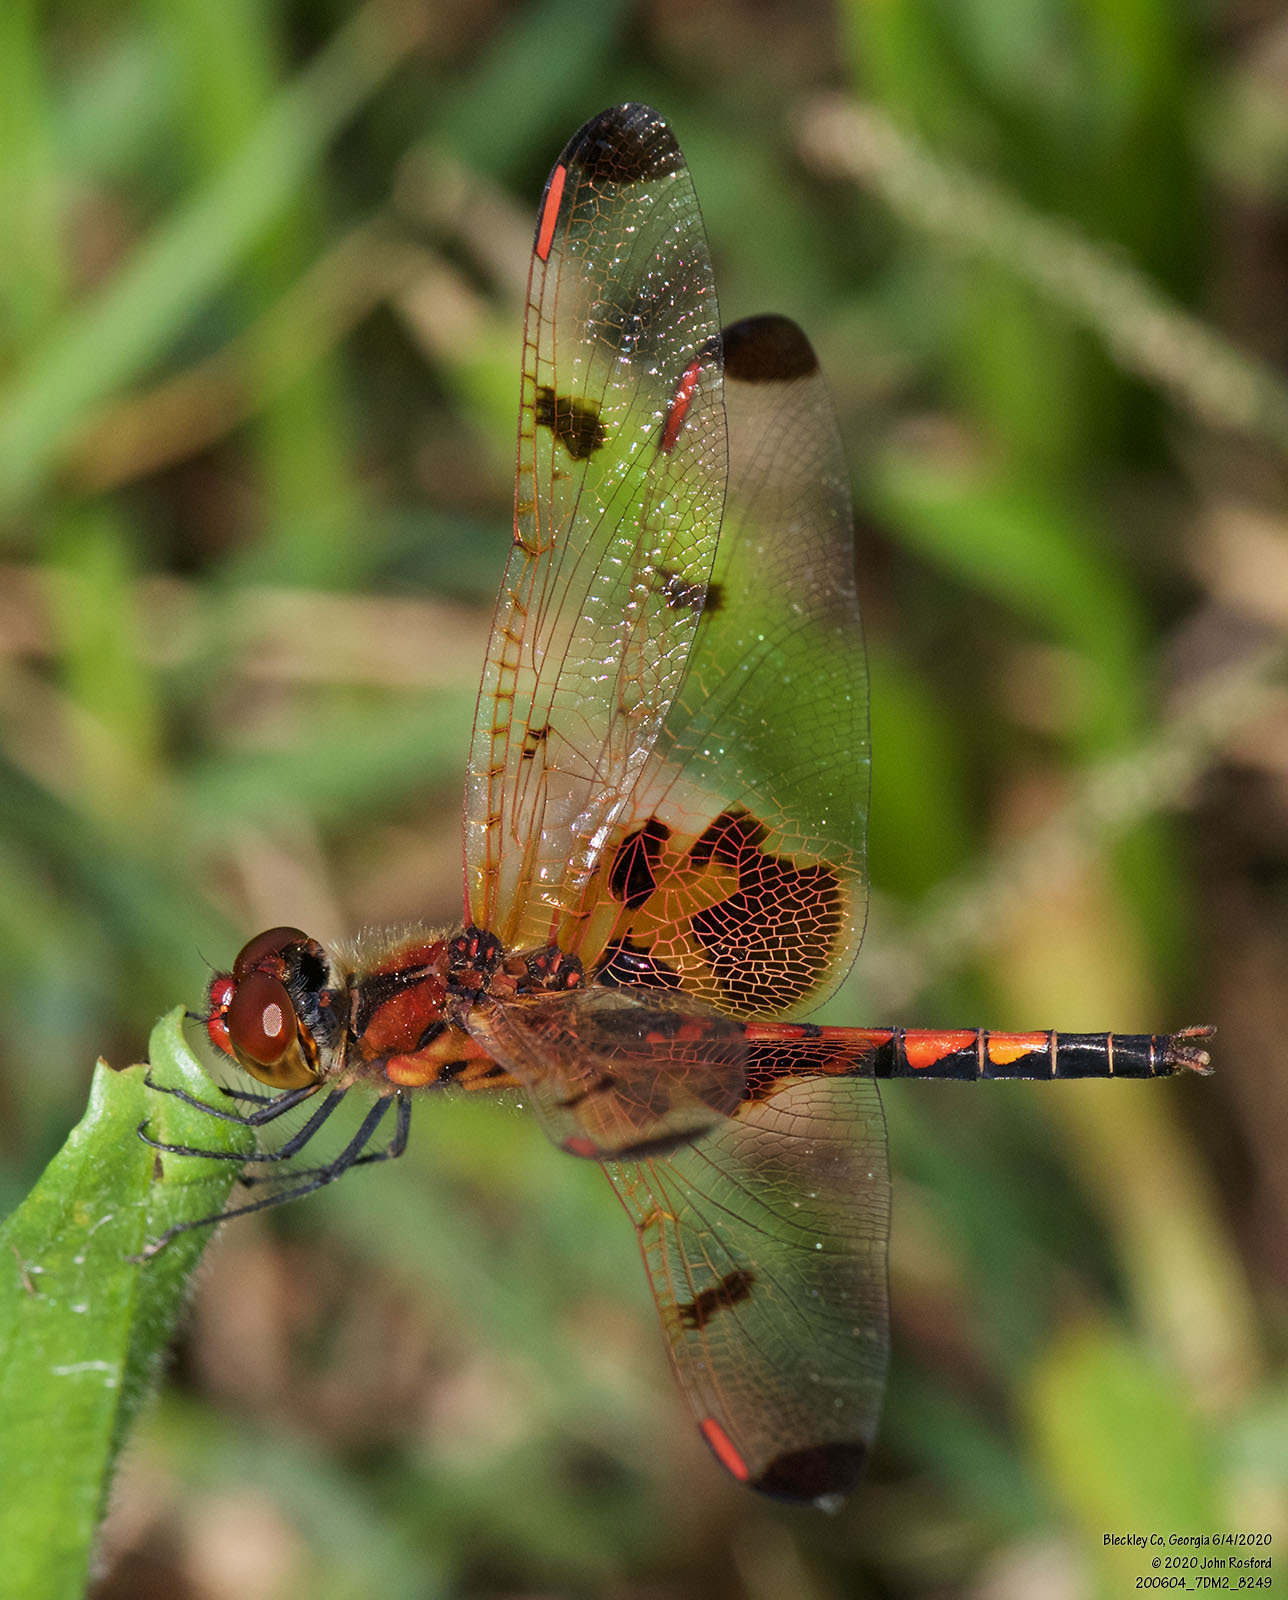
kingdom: Animalia
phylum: Arthropoda
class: Insecta
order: Odonata
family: Libellulidae
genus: Celithemis
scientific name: Celithemis elisa
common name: Calico pennant
